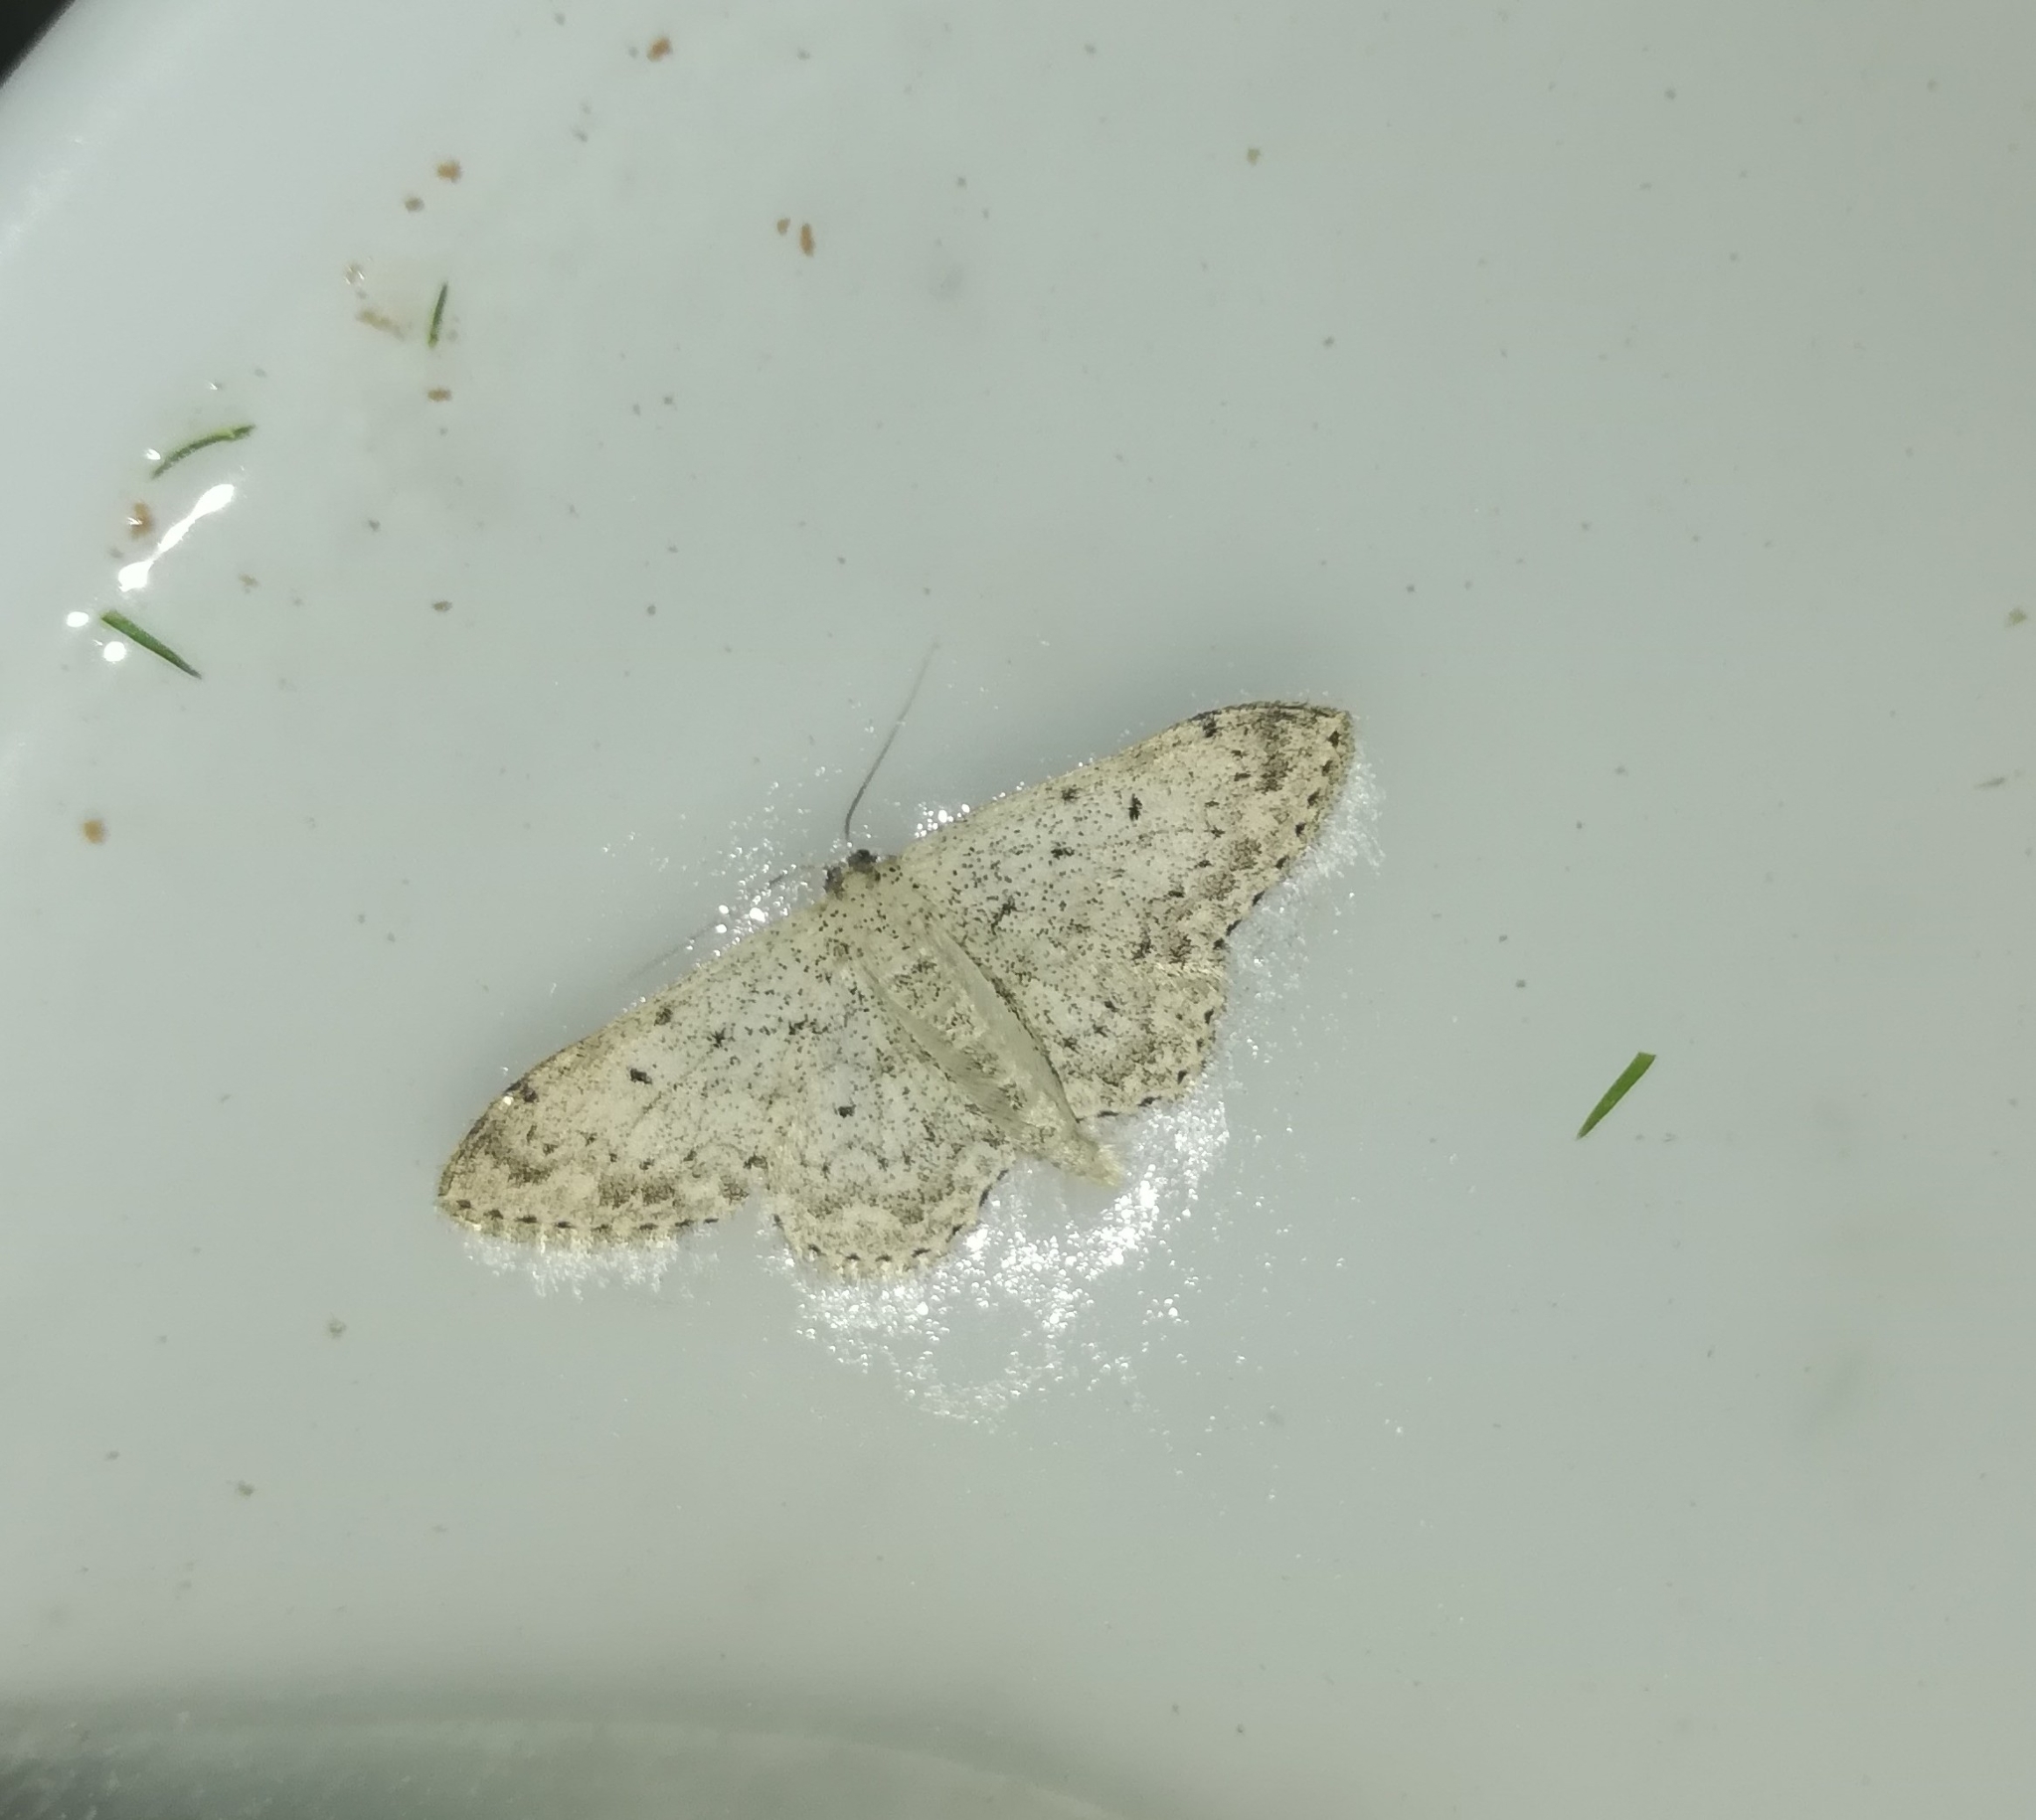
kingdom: Animalia
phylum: Arthropoda
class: Insecta
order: Lepidoptera
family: Geometridae
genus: Scopula
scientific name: Scopula marginepunctata
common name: Mullein wave
